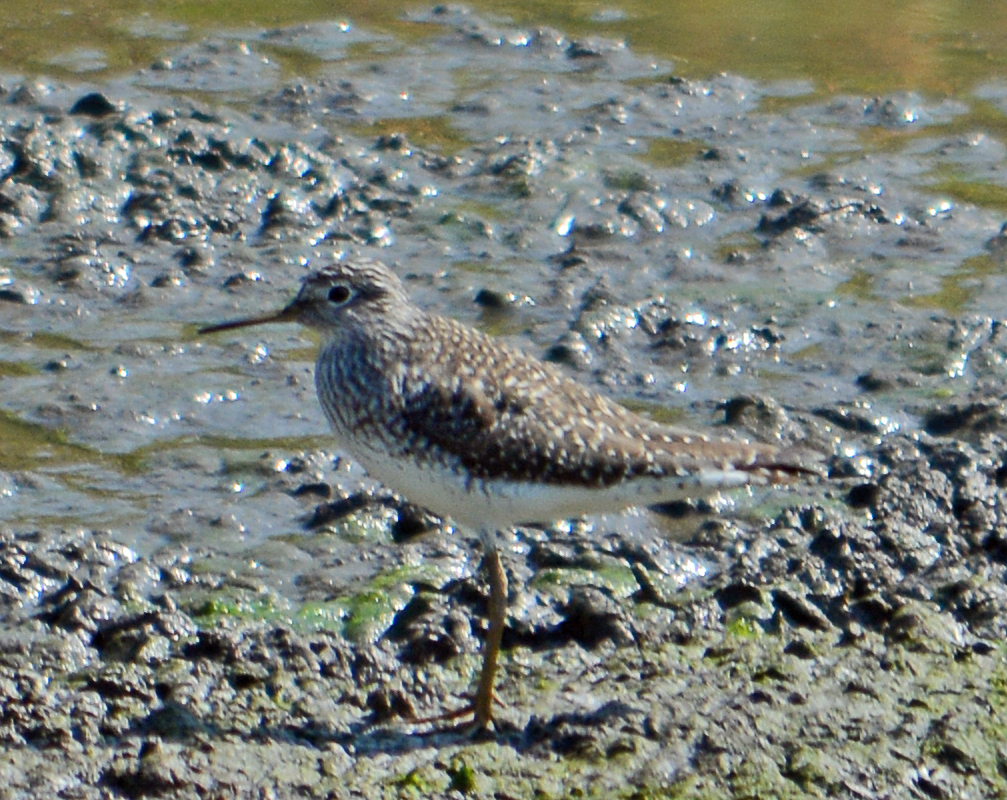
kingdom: Animalia
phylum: Chordata
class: Aves
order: Charadriiformes
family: Scolopacidae
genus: Tringa
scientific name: Tringa solitaria
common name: Solitary sandpiper
